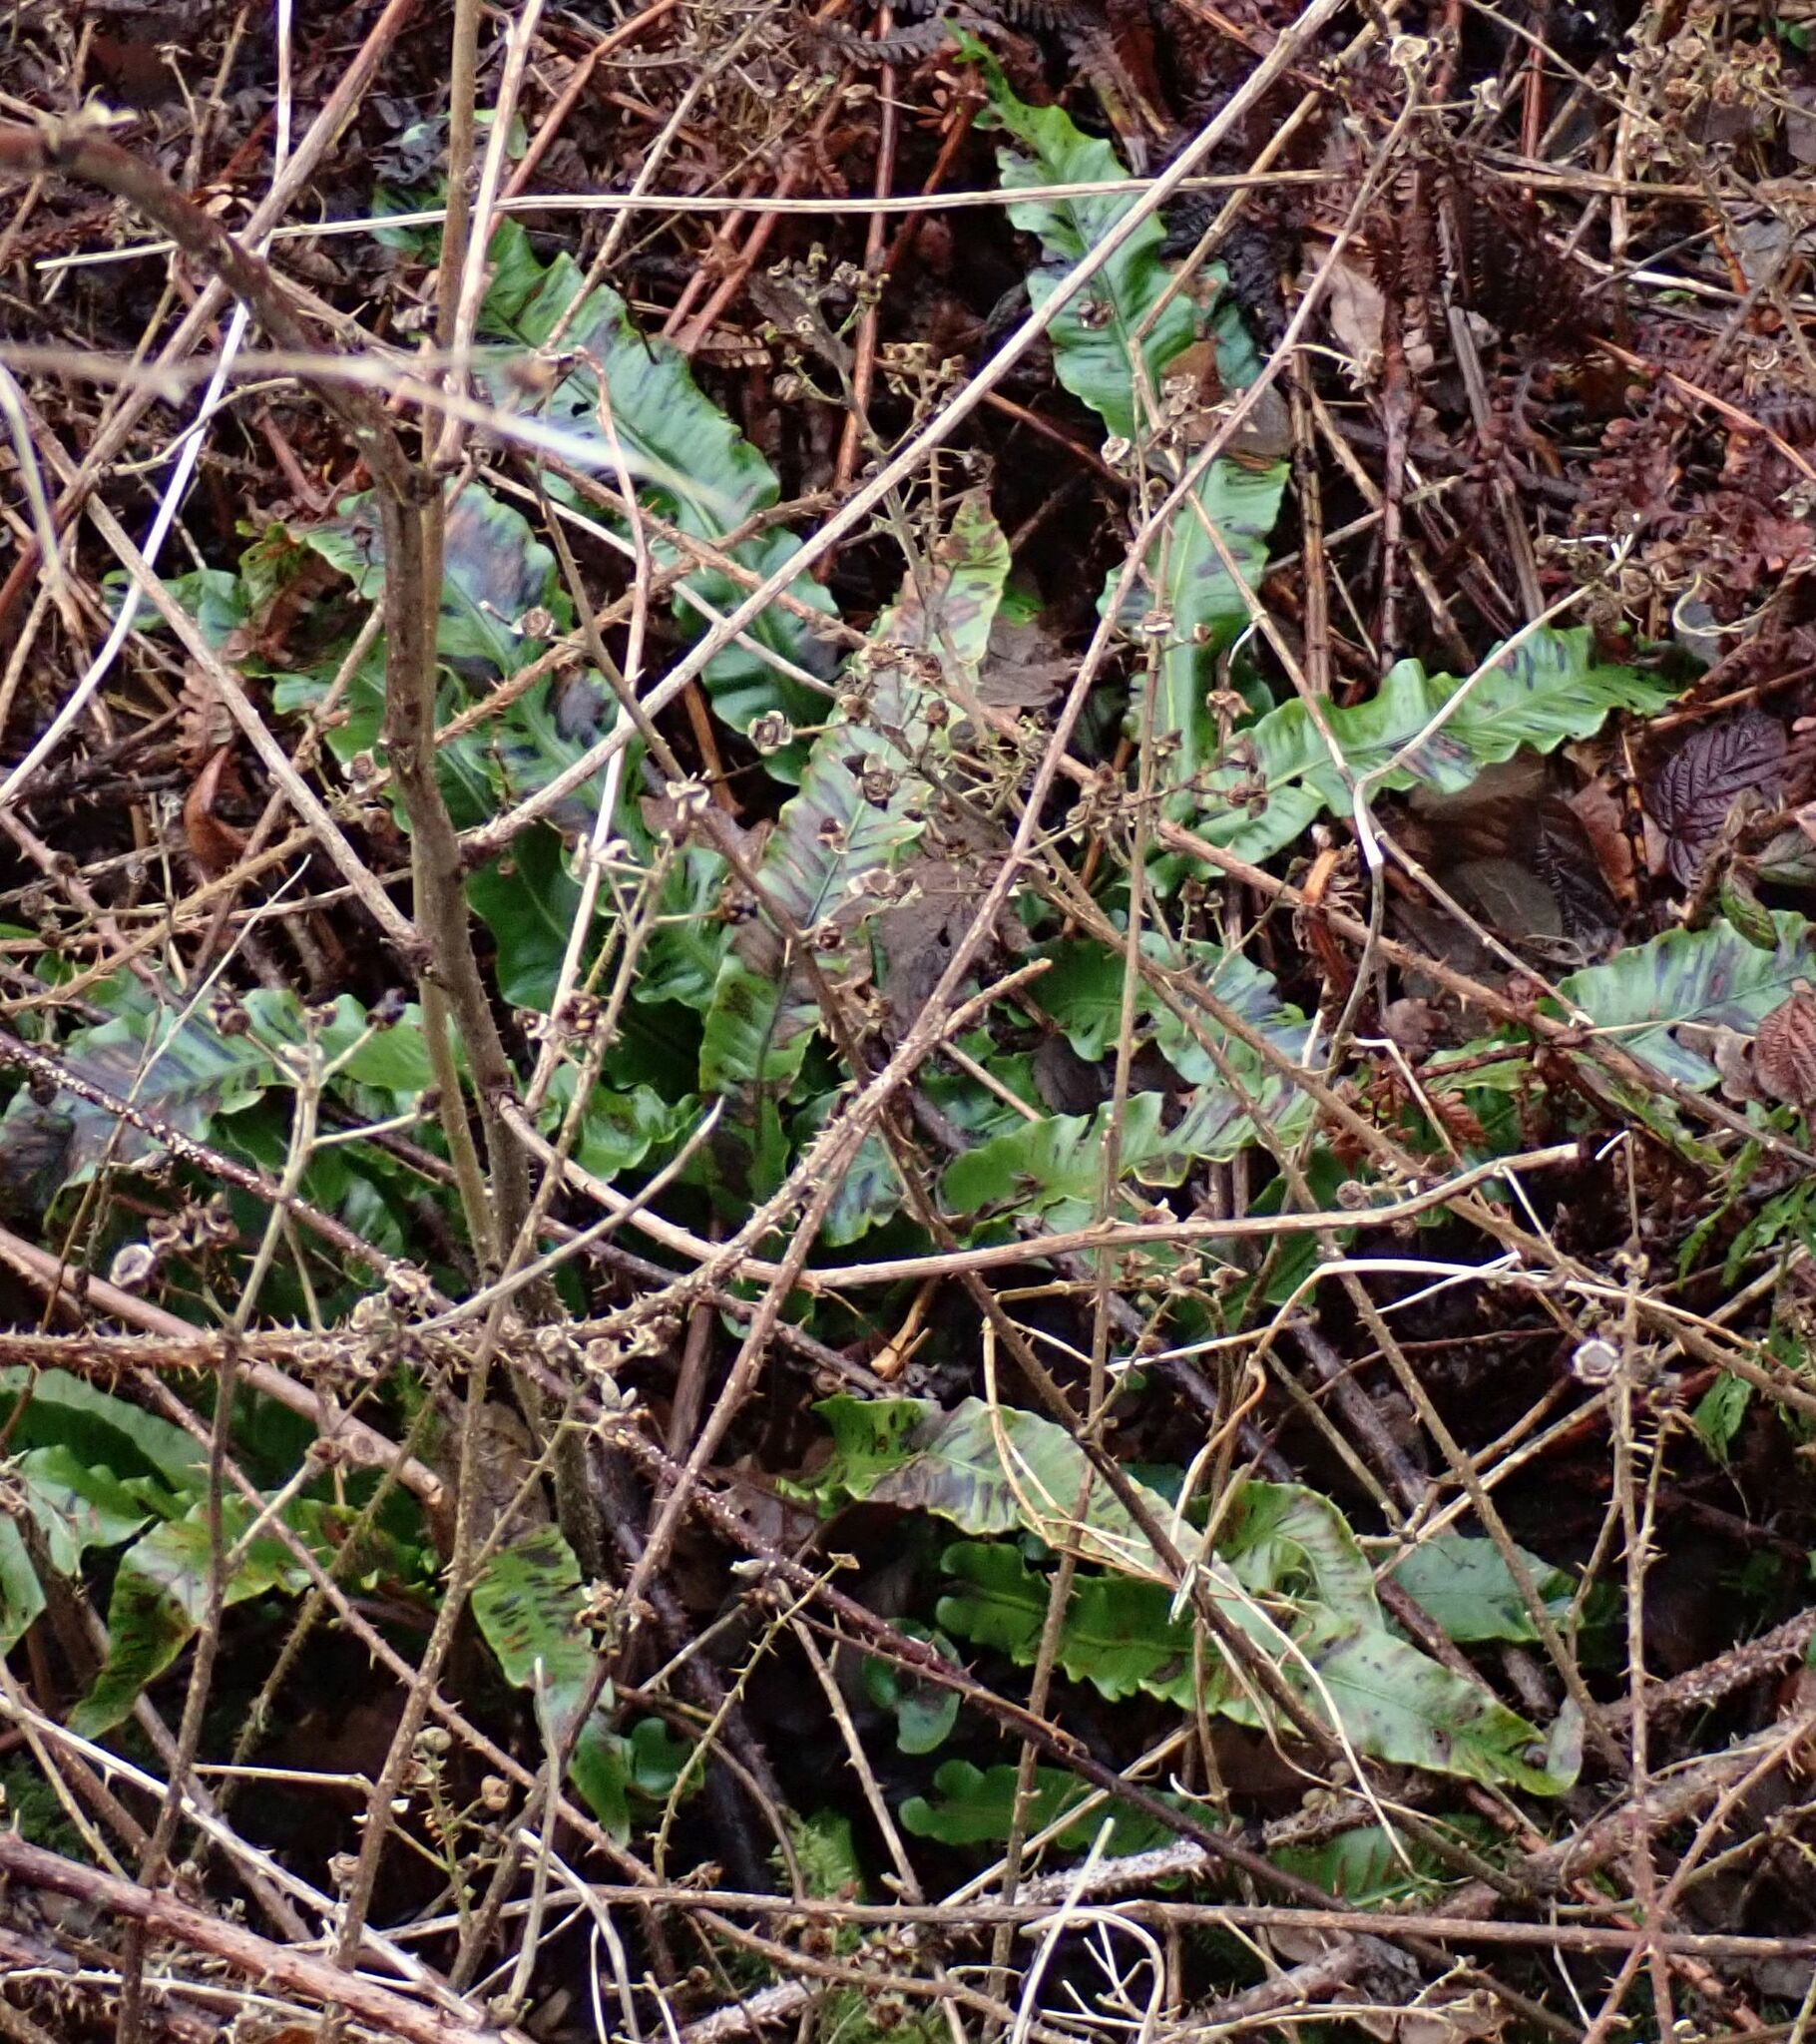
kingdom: Plantae
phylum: Tracheophyta
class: Polypodiopsida
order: Polypodiales
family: Aspleniaceae
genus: Asplenium
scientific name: Asplenium scolopendrium
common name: Hart's-tongue fern
